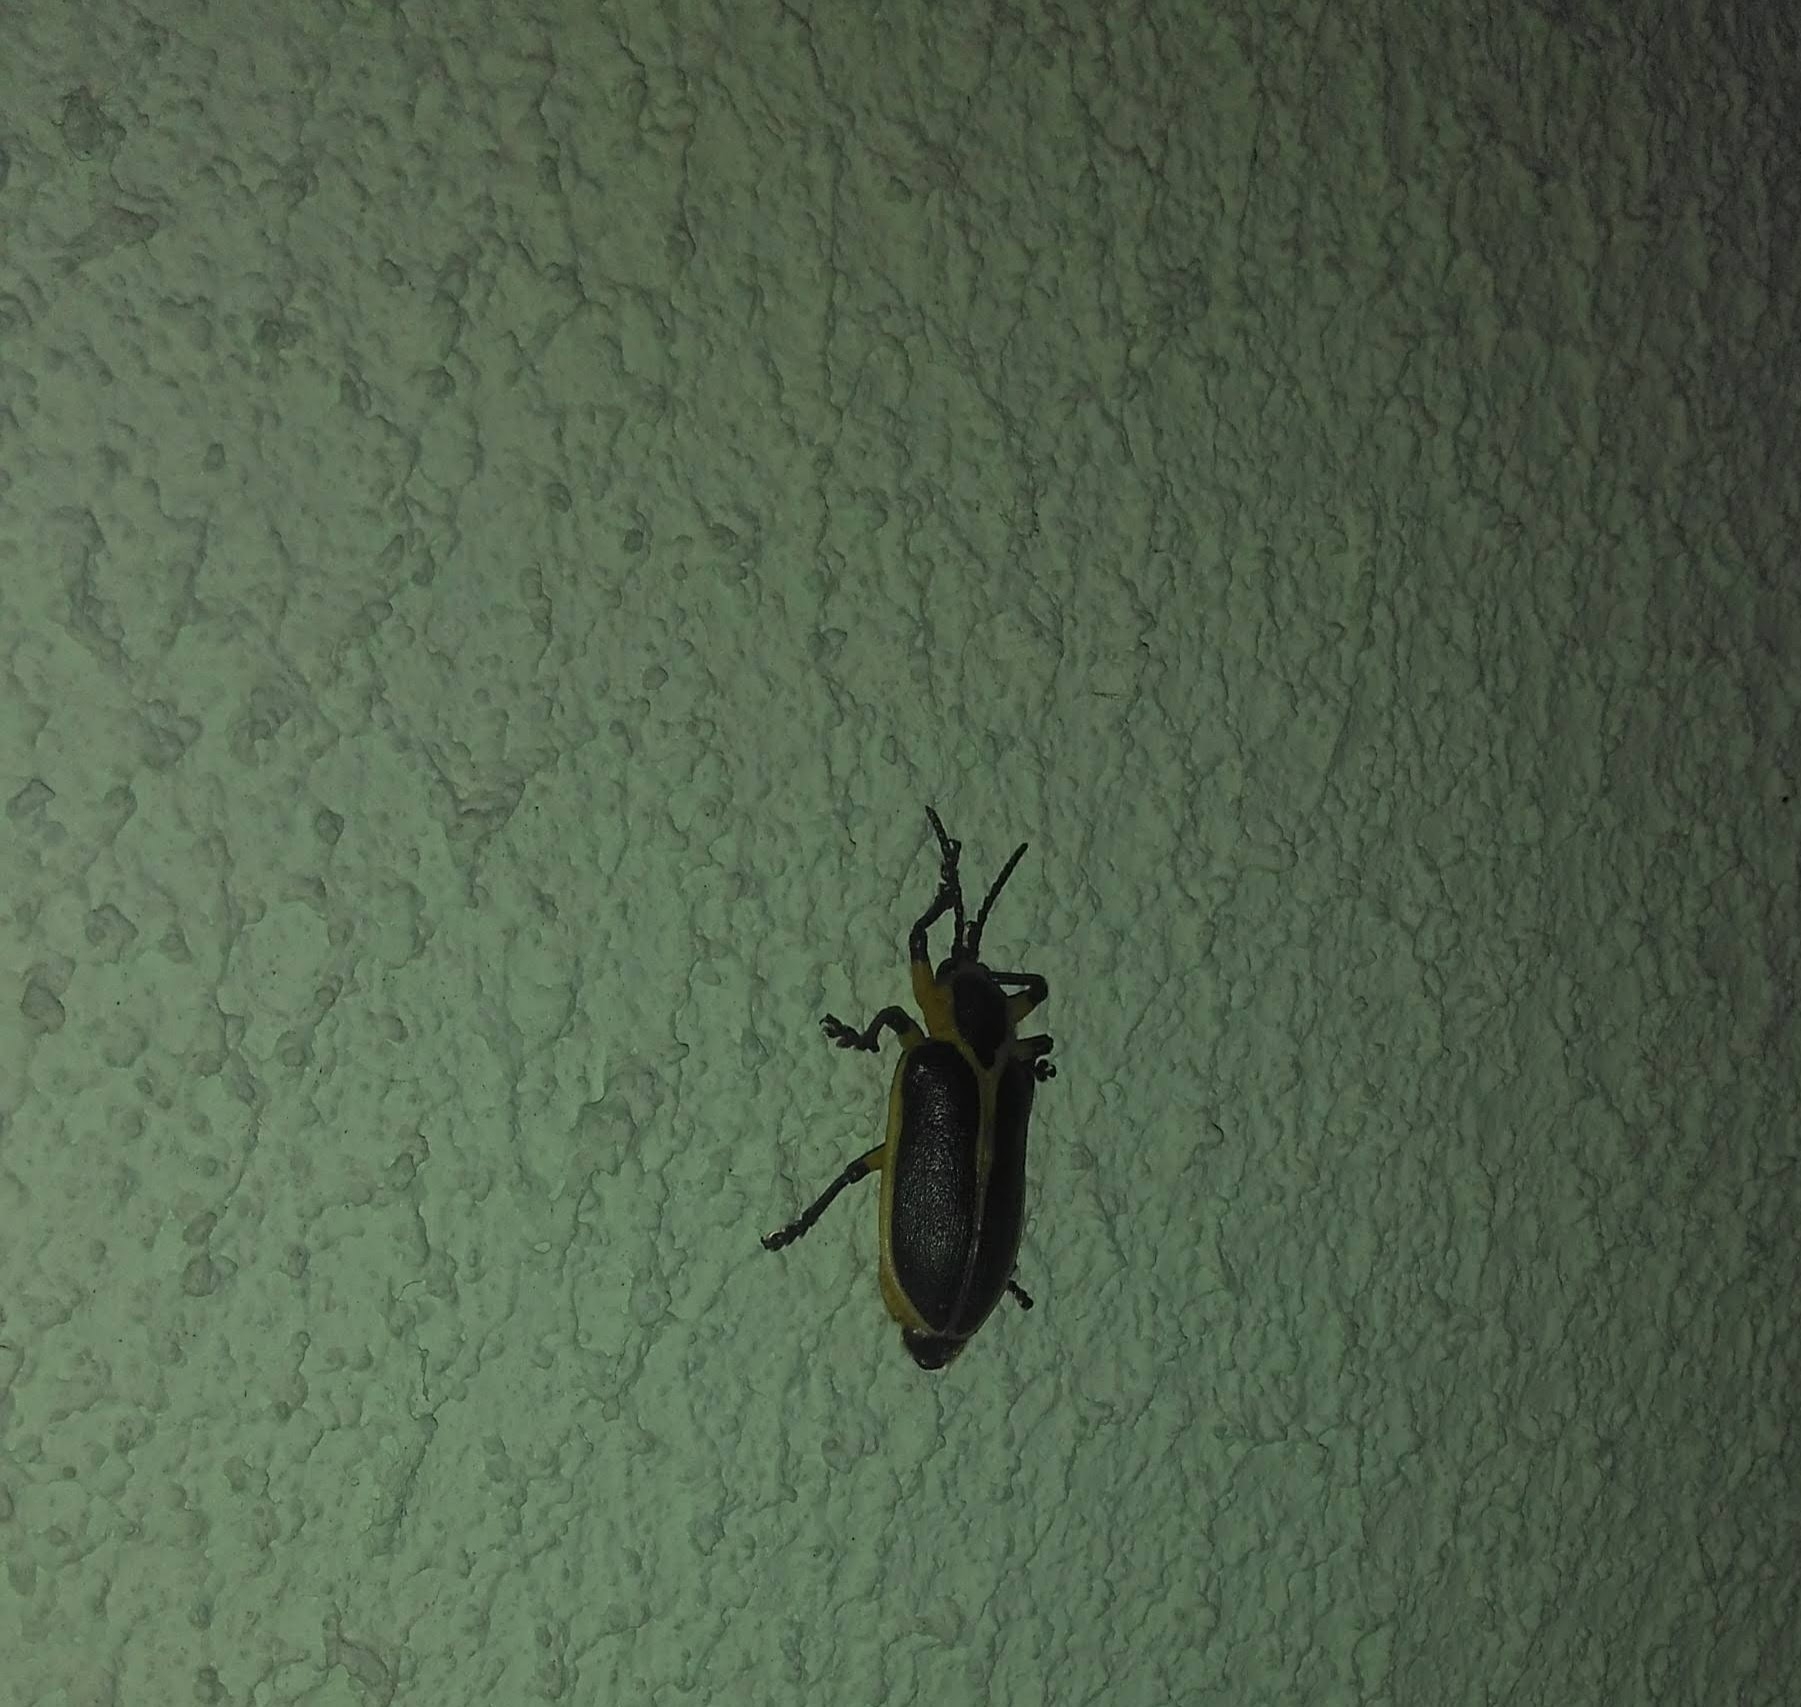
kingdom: Animalia
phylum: Arthropoda
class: Insecta
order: Coleoptera
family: Chrysomelidae
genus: Mecistomela
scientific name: Mecistomela marginata
